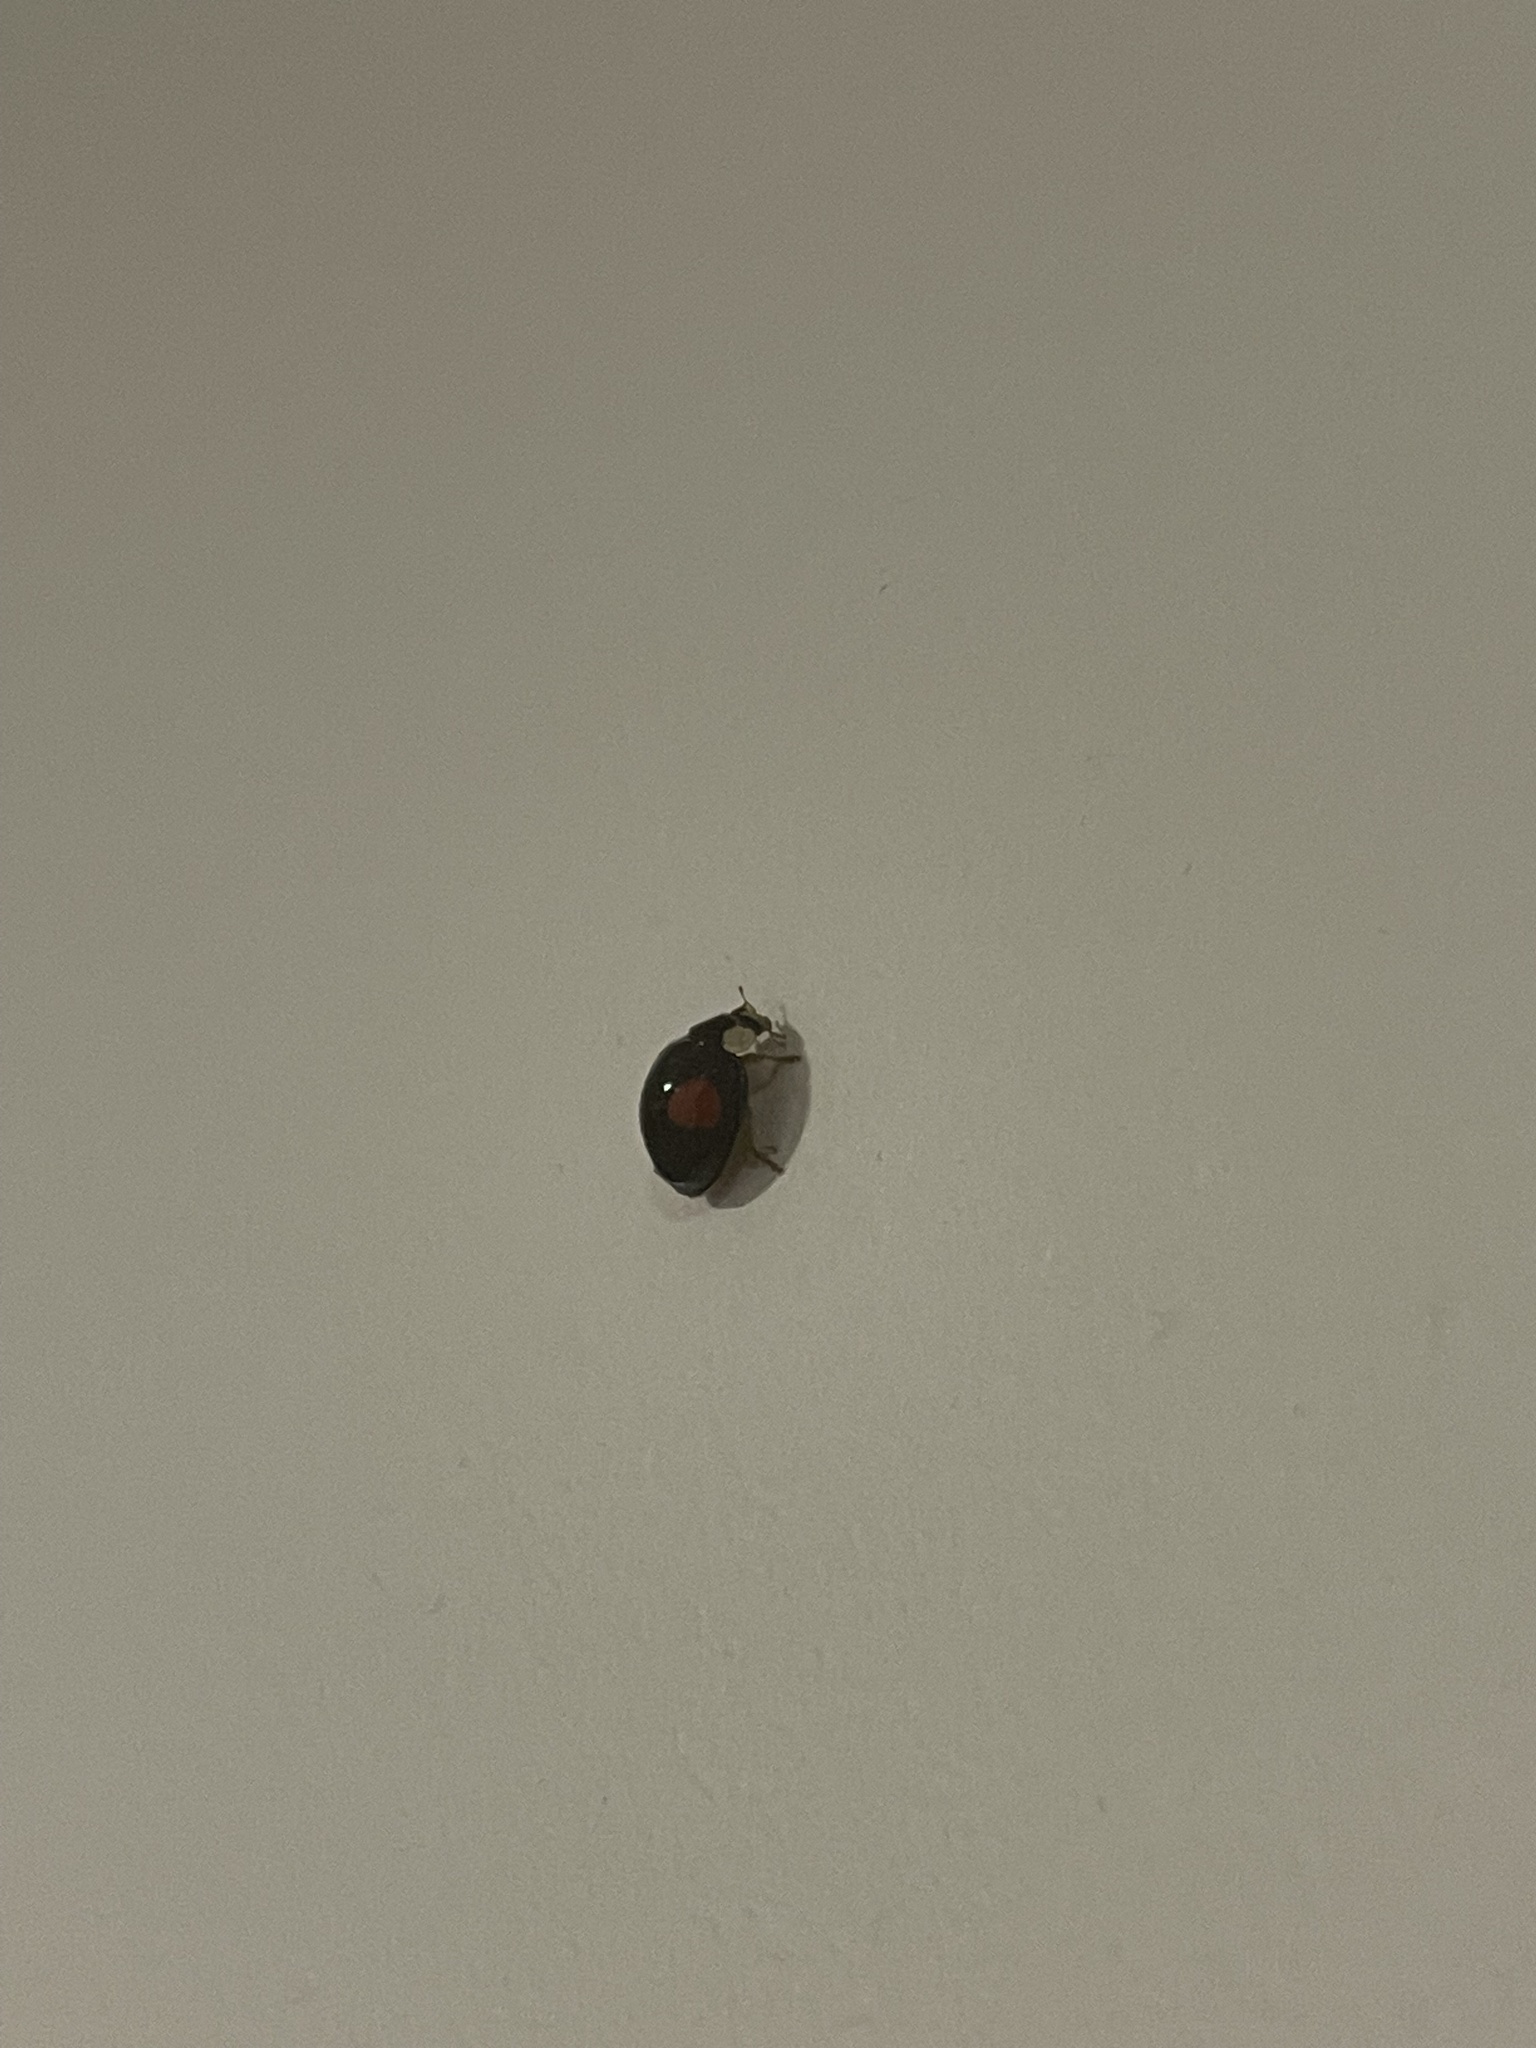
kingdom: Animalia
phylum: Arthropoda
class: Insecta
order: Coleoptera
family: Coccinellidae
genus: Harmonia
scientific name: Harmonia axyridis
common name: Harlequin ladybird
